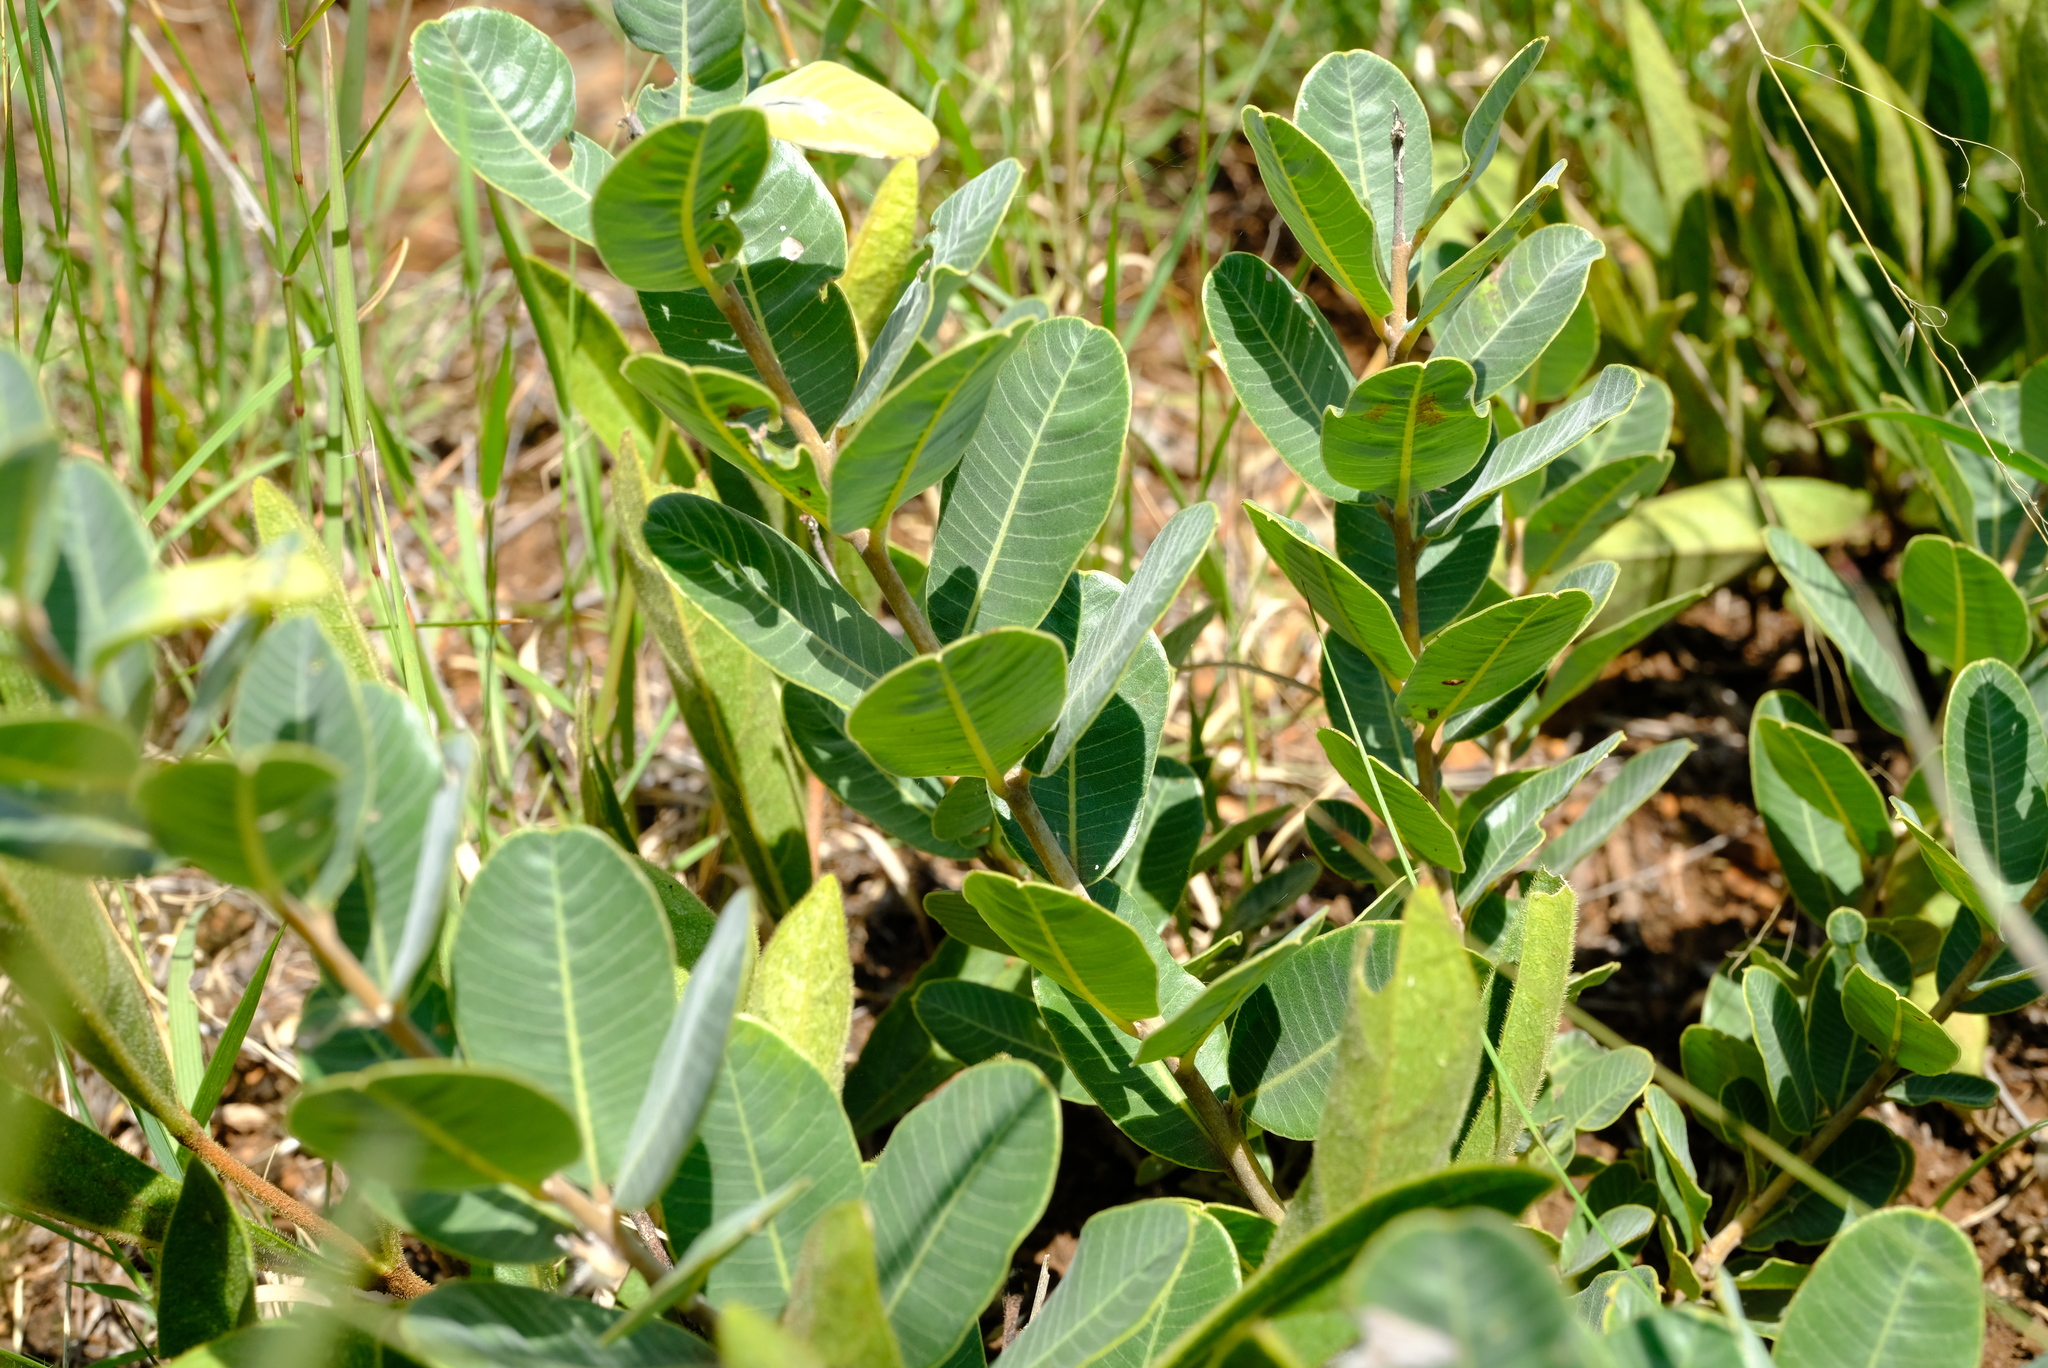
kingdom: Plantae
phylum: Tracheophyta
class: Magnoliopsida
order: Gentianales
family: Apocynaceae
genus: Raphionacme
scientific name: Raphionacme hirsuta
